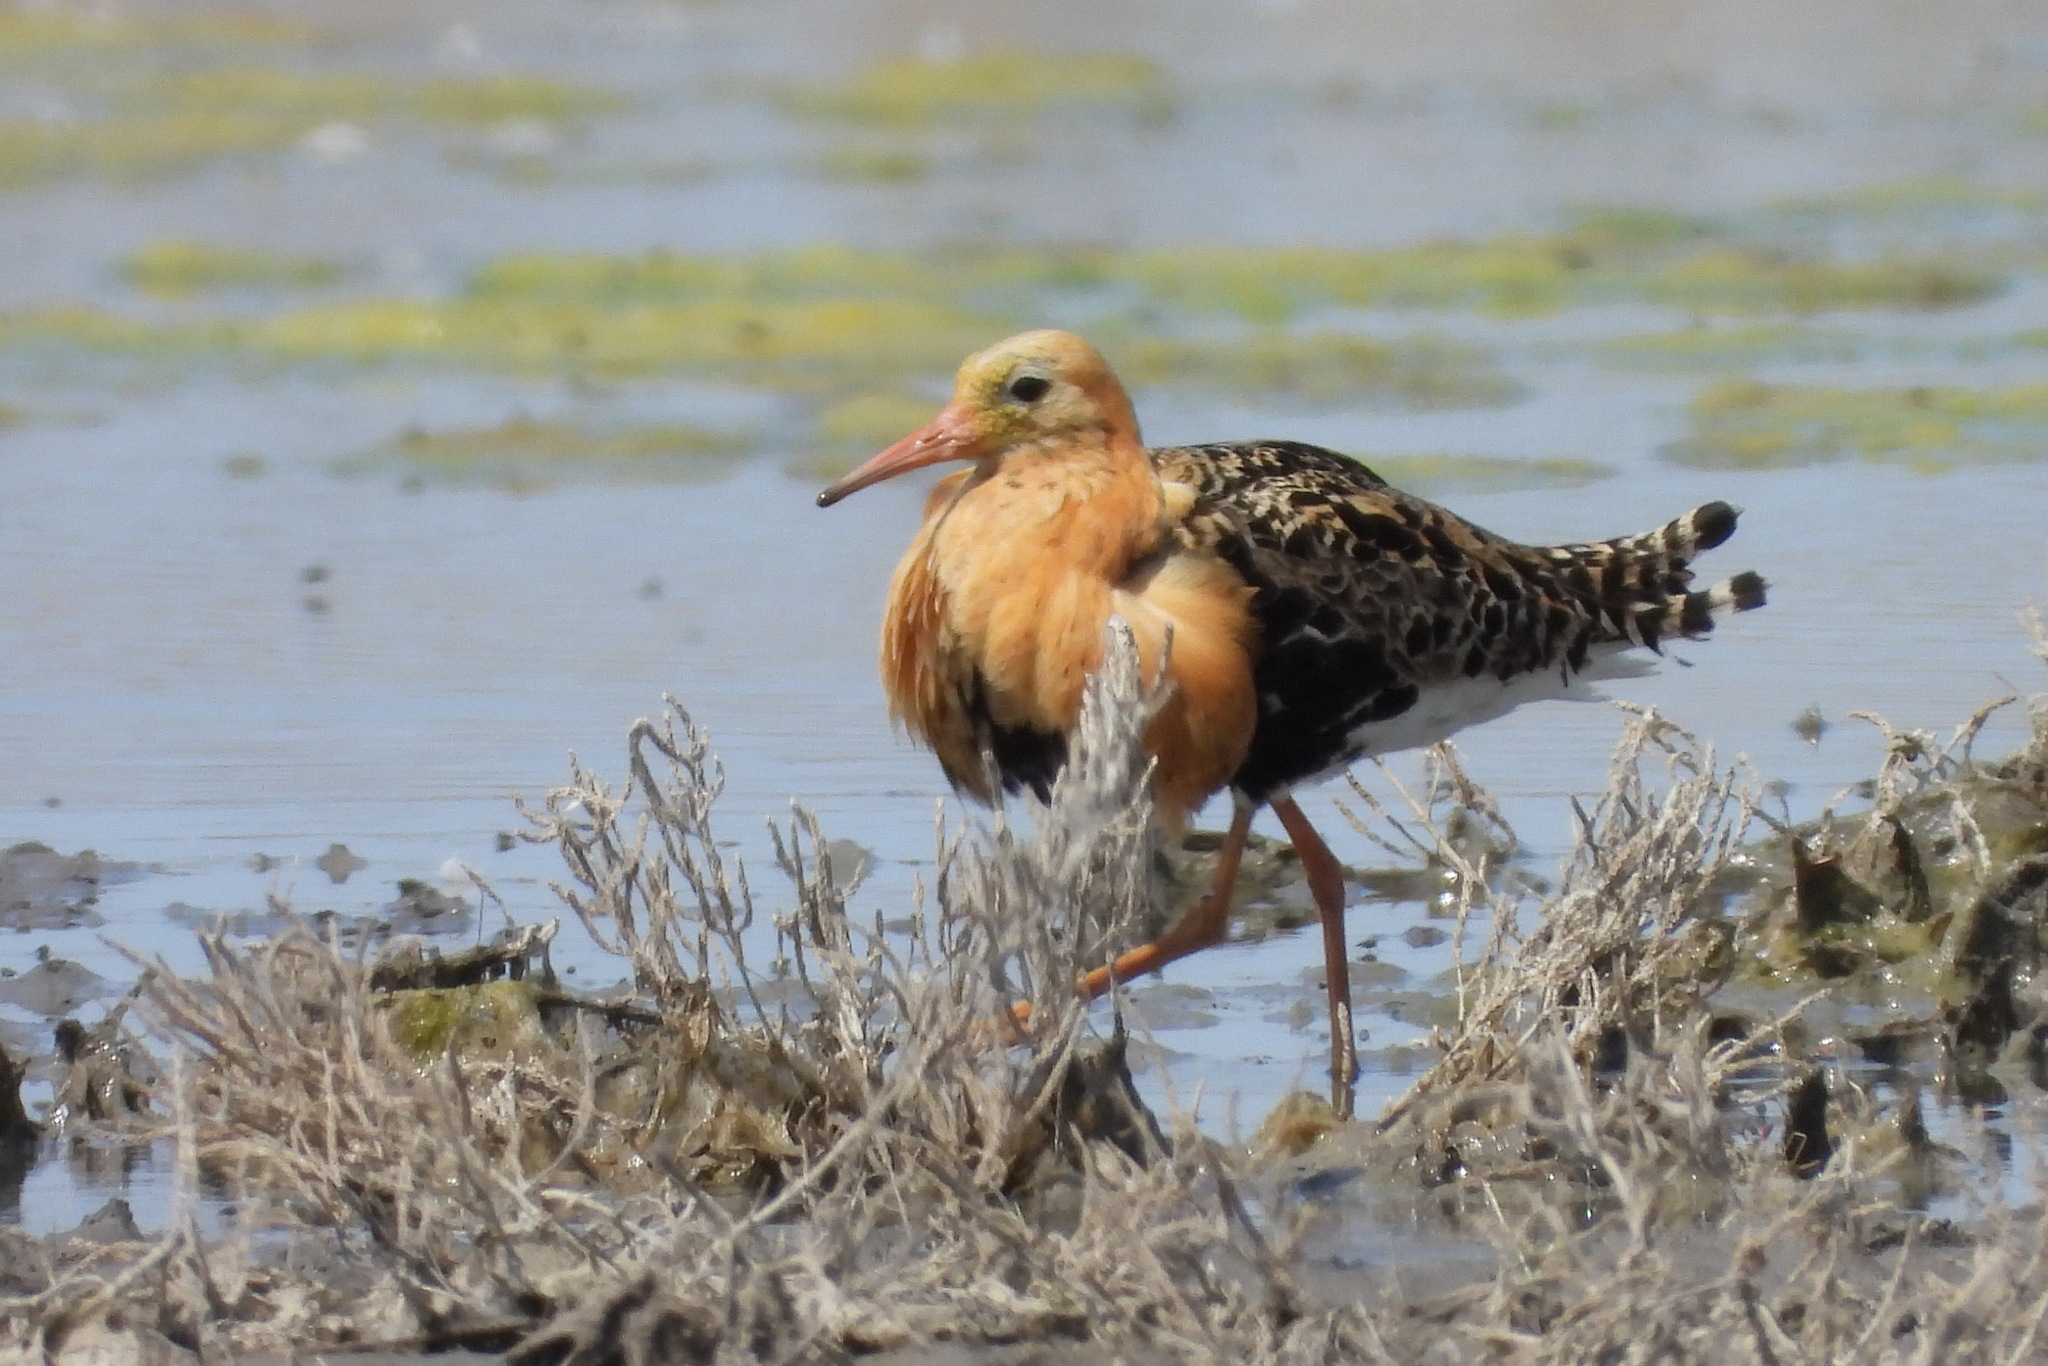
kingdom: Animalia
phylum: Chordata
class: Aves
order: Charadriiformes
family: Scolopacidae
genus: Calidris
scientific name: Calidris pugnax
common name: Ruff
